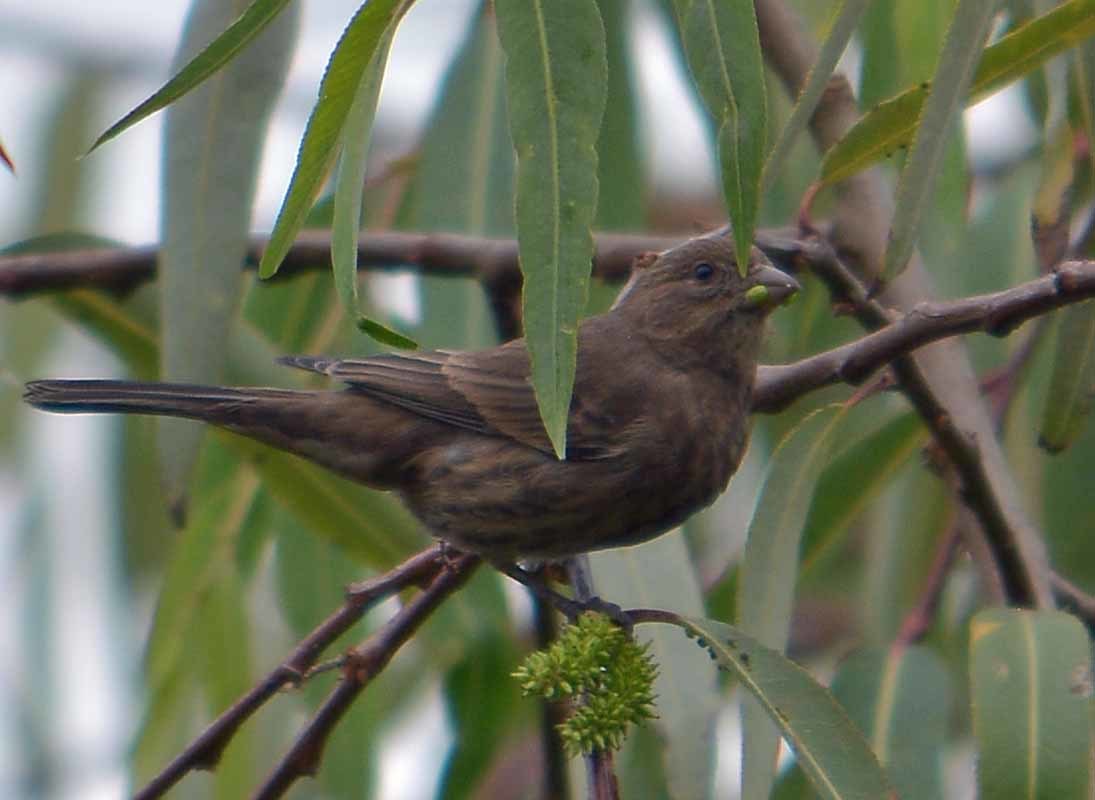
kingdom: Animalia
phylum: Chordata
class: Aves
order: Passeriformes
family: Fringillidae
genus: Haemorhous
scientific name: Haemorhous mexicanus
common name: House finch
